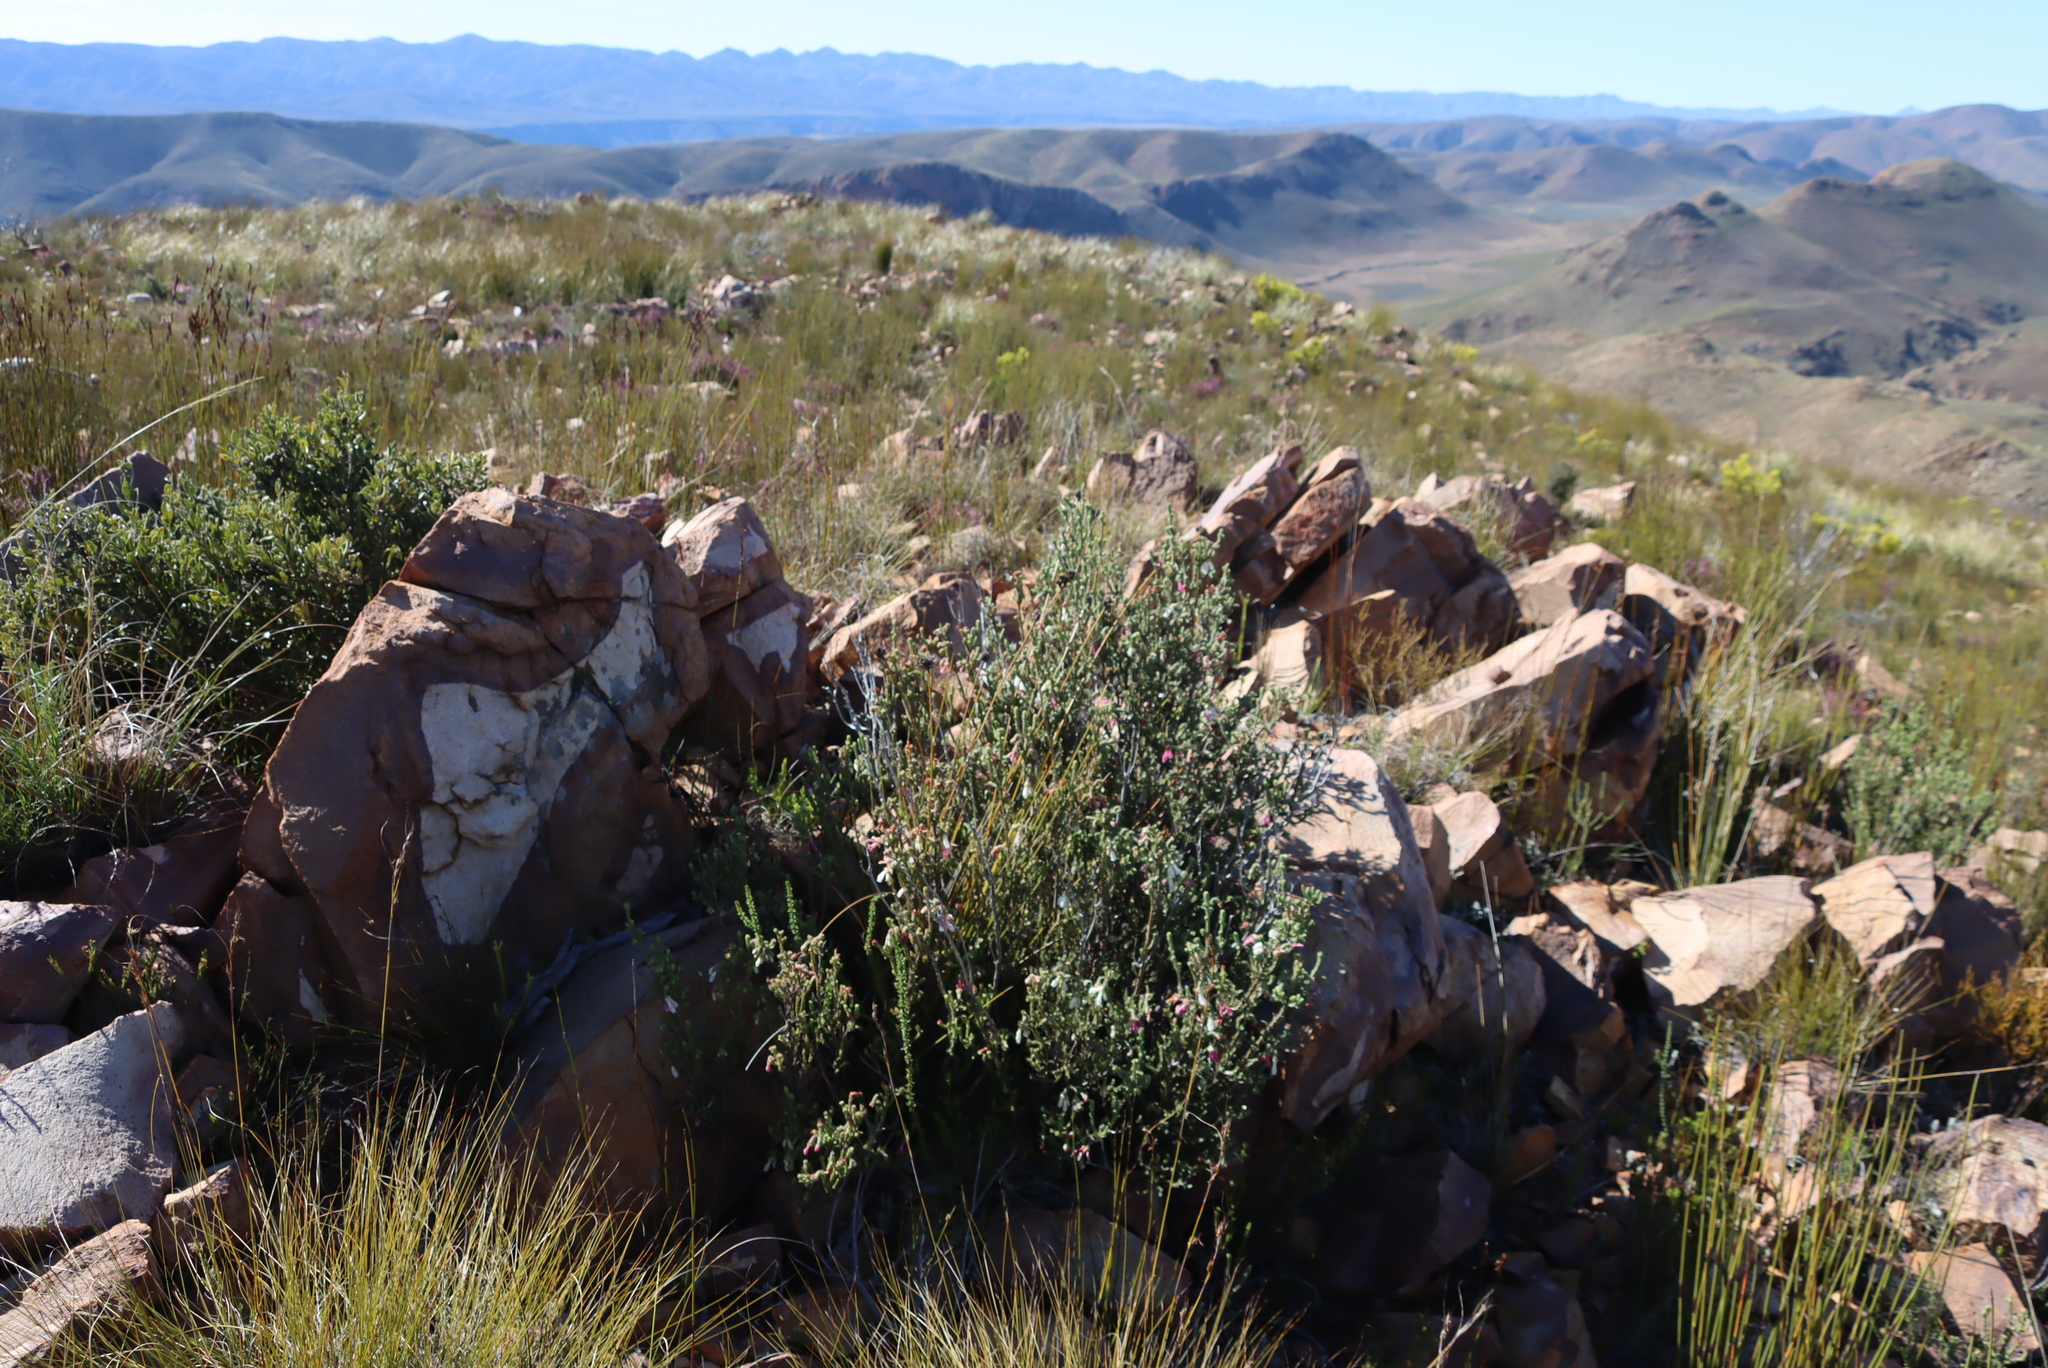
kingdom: Plantae
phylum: Tracheophyta
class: Magnoliopsida
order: Ericales
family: Ericaceae
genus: Erica
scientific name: Erica pectinifolia
